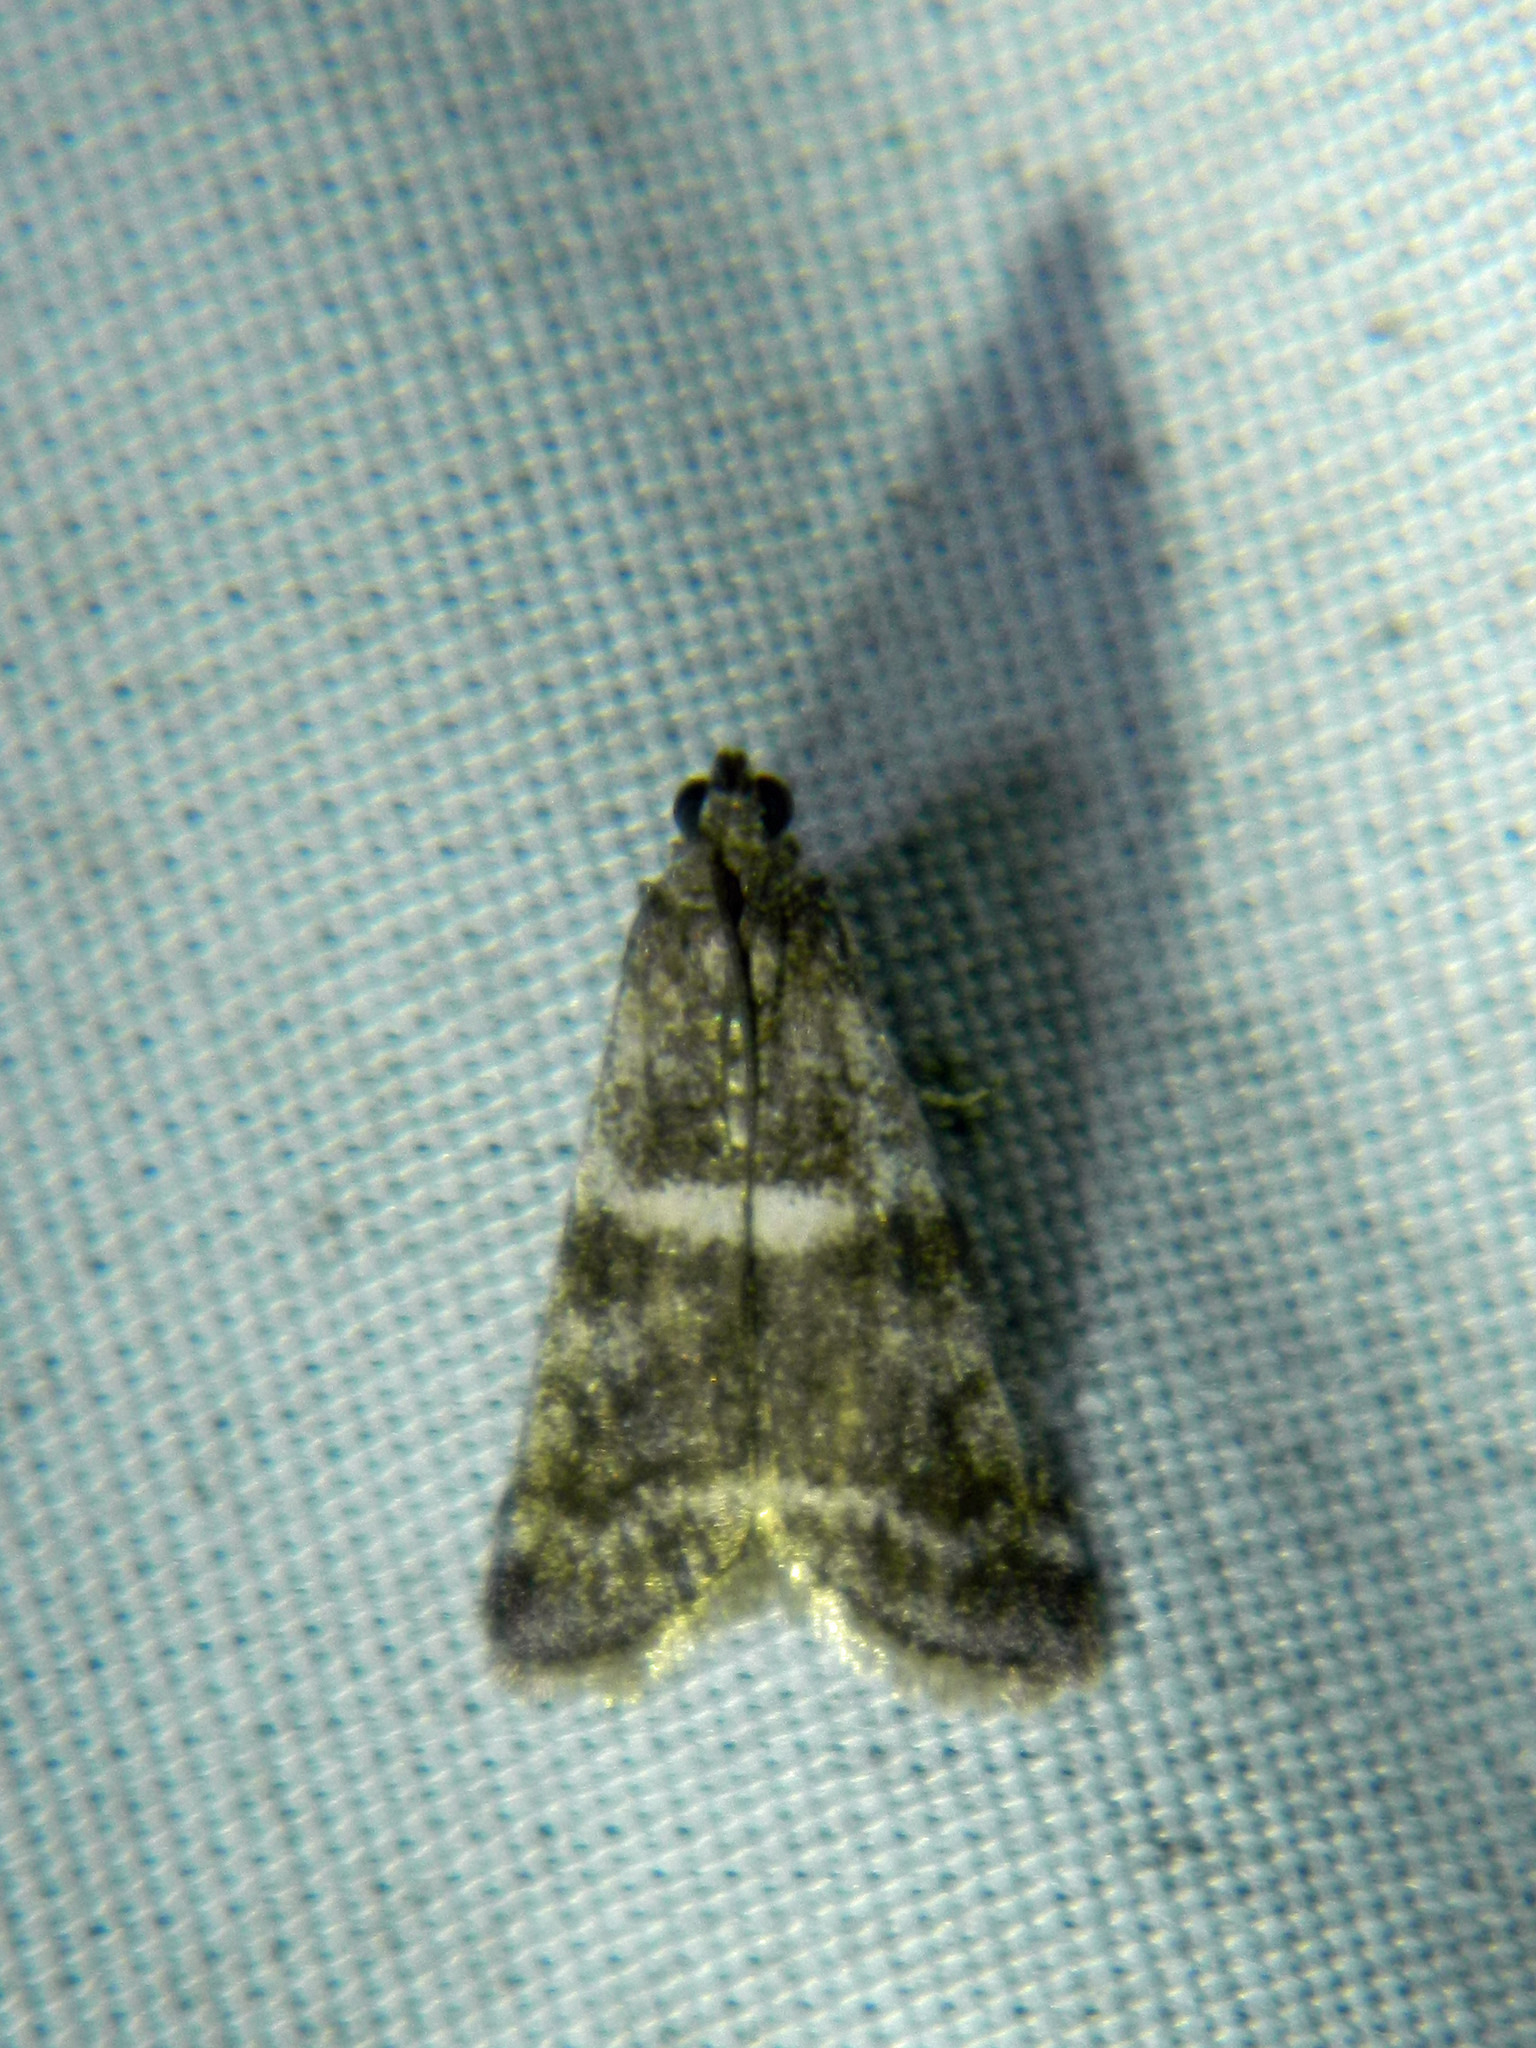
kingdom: Animalia
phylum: Arthropoda
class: Insecta
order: Lepidoptera
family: Pyralidae
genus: Apomyelois
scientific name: Apomyelois bistriatella
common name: Heath knot-horn
